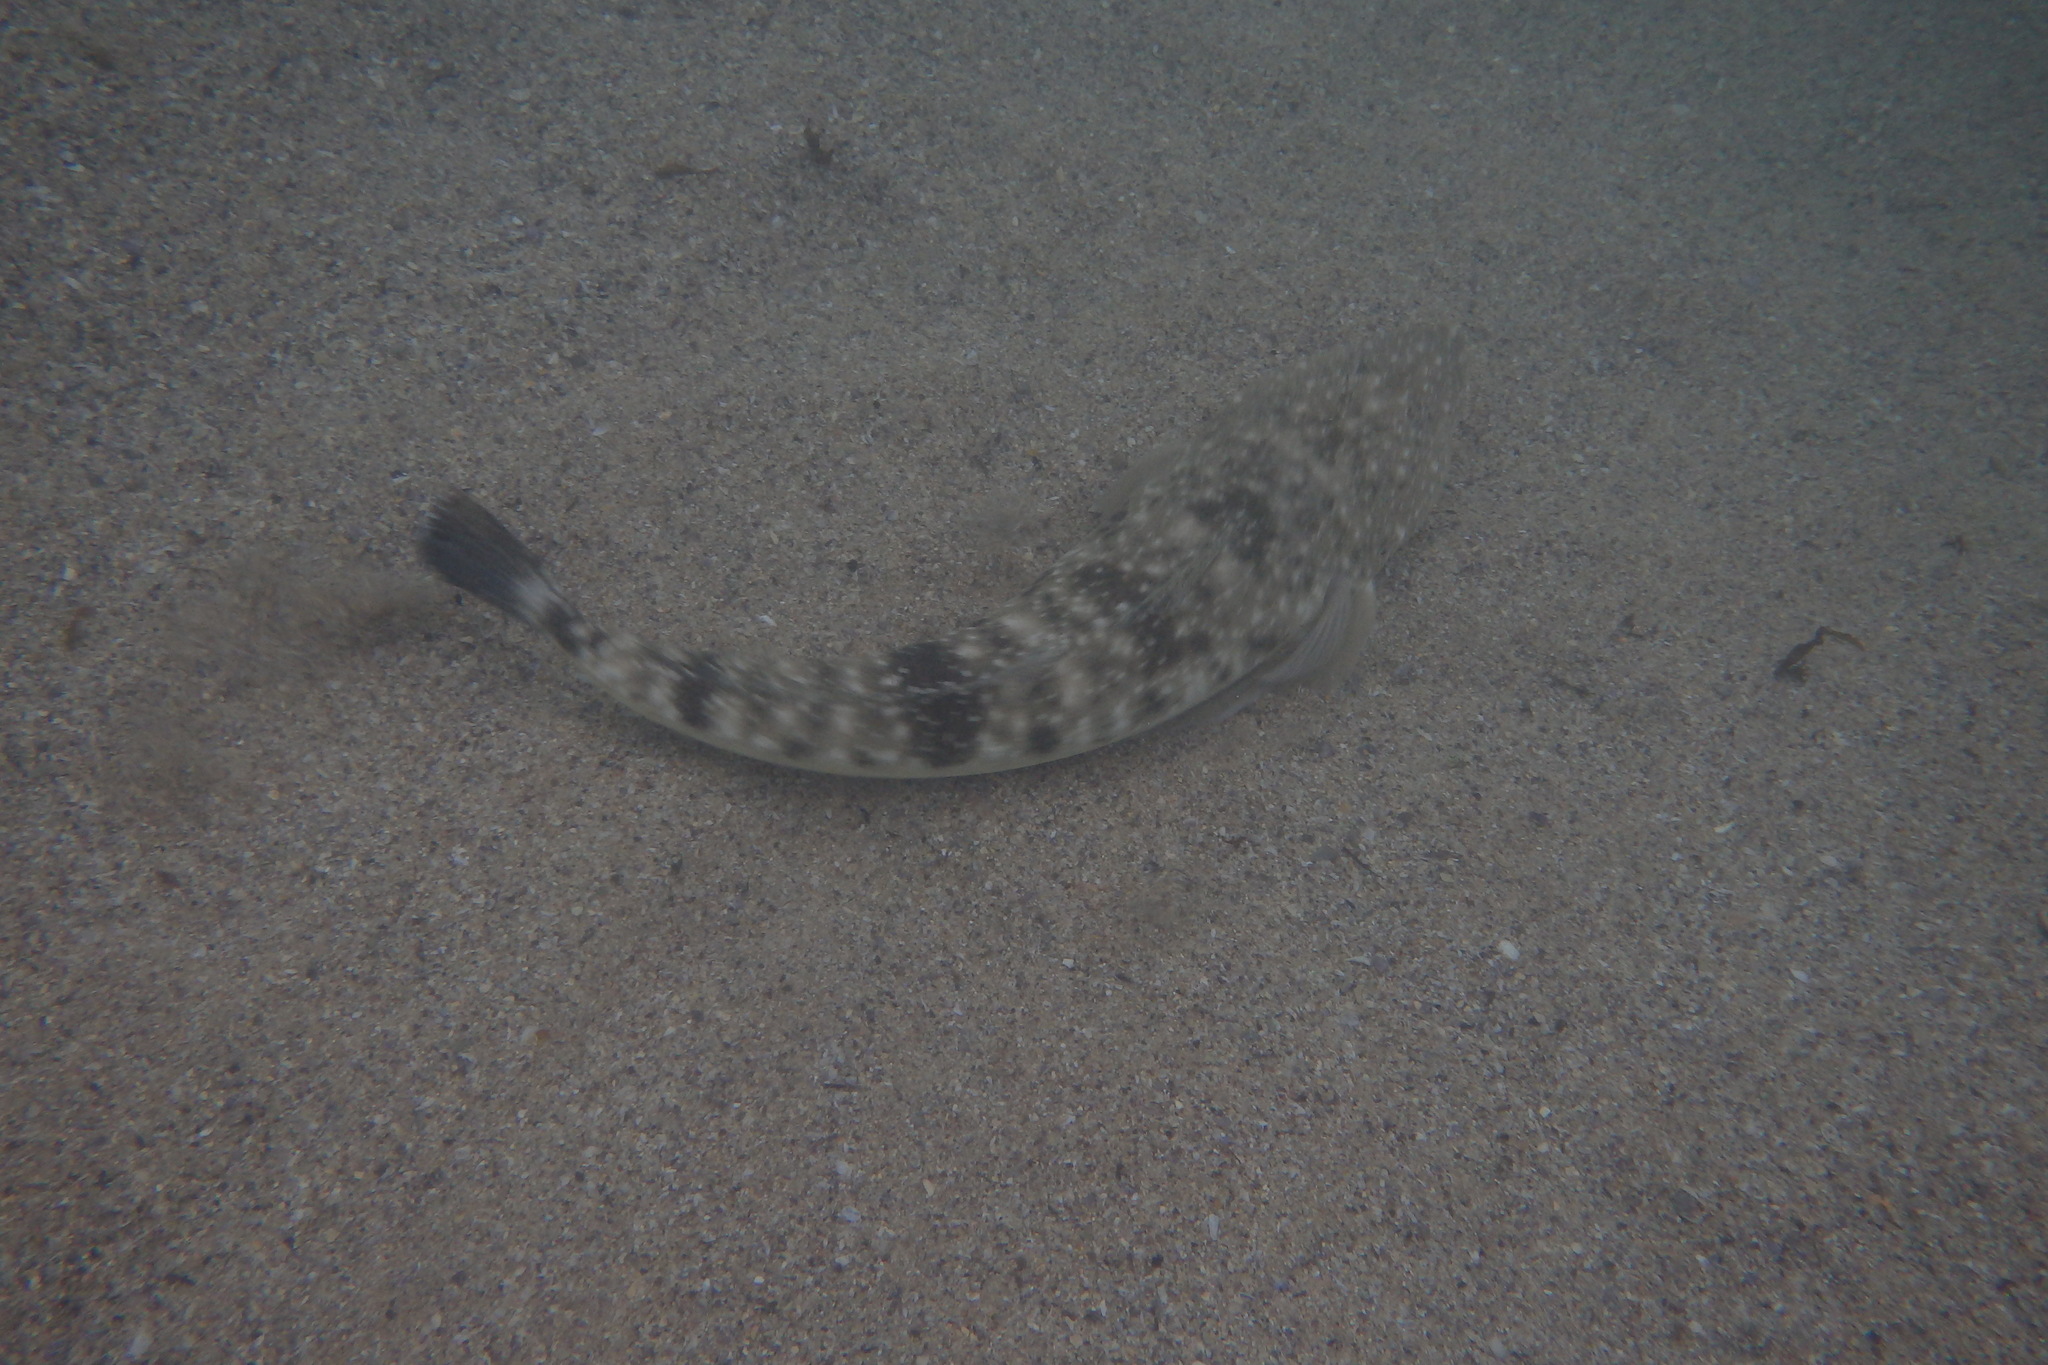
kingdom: Animalia
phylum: Chordata
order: Scorpaeniformes
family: Platycephalidae
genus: Platycephalus
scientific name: Platycephalus fuscus
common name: Dusky flathead
